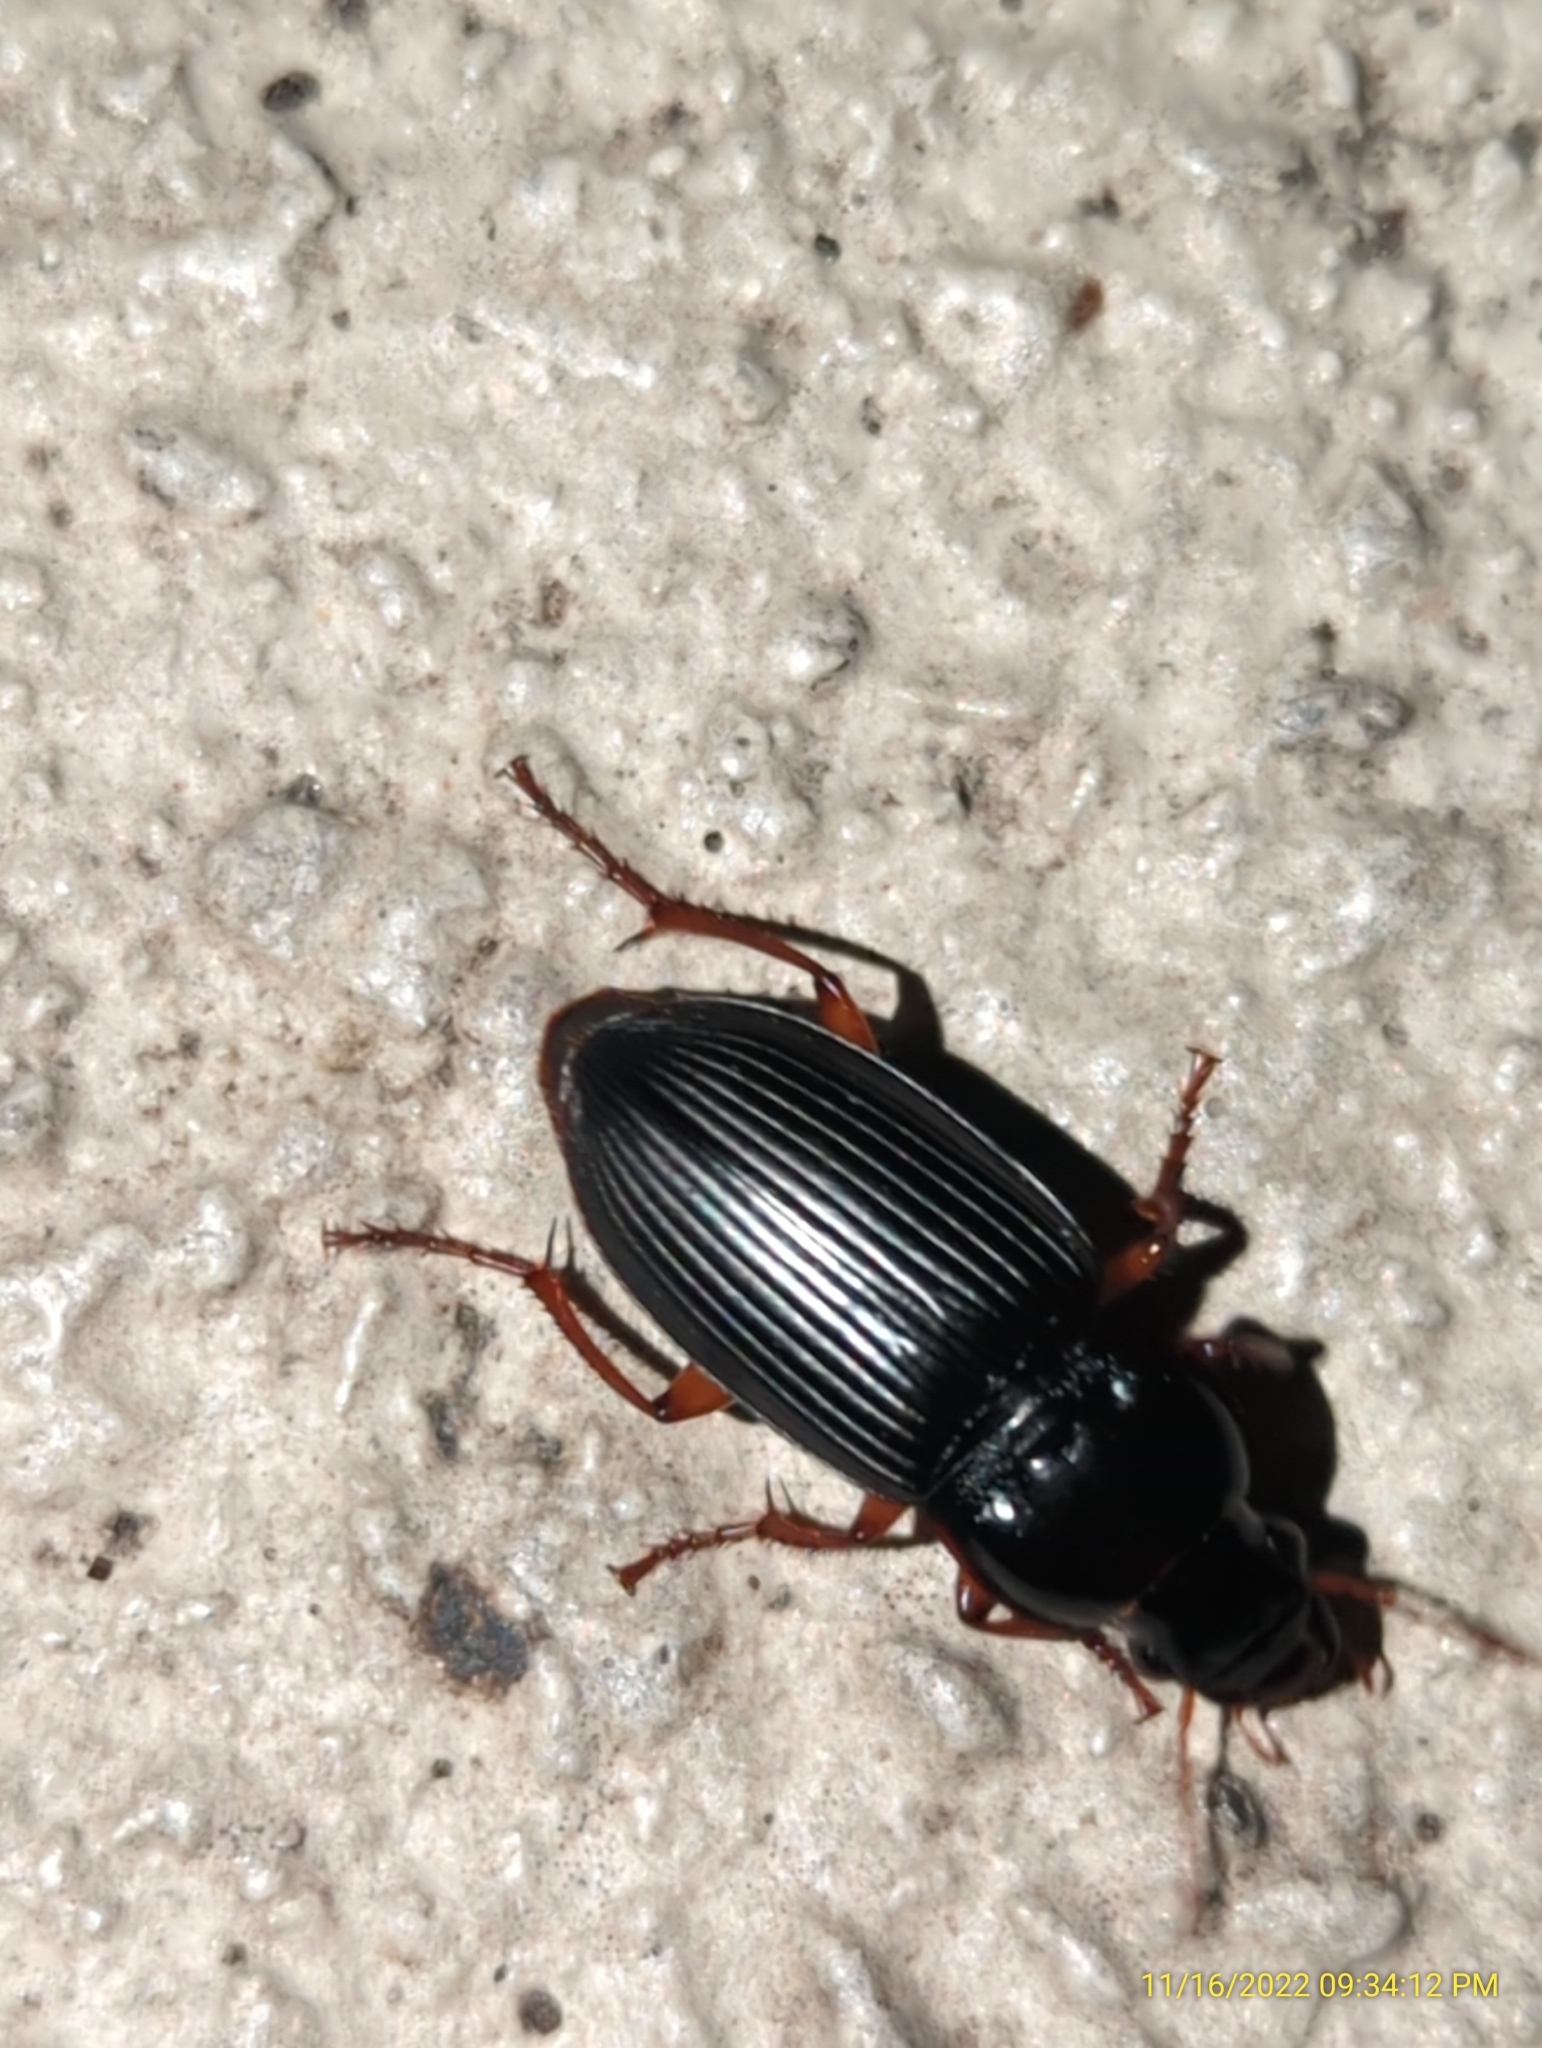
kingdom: Animalia
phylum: Arthropoda
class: Insecta
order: Coleoptera
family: Carabidae
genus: Harpalus
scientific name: Harpalus pensylvanicus
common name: Pennsylvania dingy ground beetle
